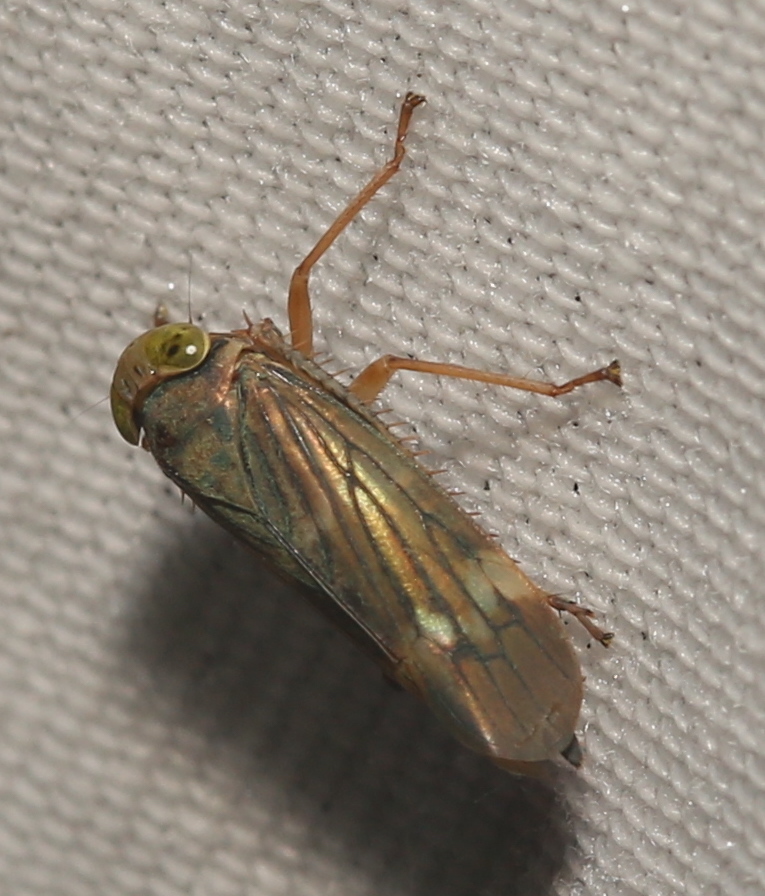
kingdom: Animalia
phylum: Arthropoda
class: Insecta
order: Hemiptera
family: Cicadellidae
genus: Jikradia
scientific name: Jikradia olitoria
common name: Coppery leafhopper
